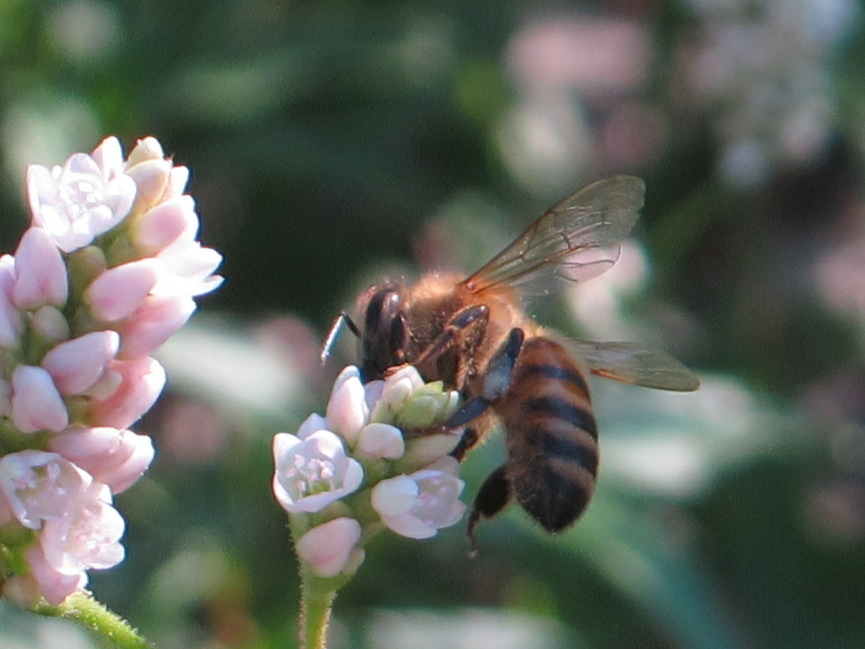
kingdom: Animalia
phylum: Arthropoda
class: Insecta
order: Hymenoptera
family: Apidae
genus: Apis
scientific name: Apis mellifera
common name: Honey bee
